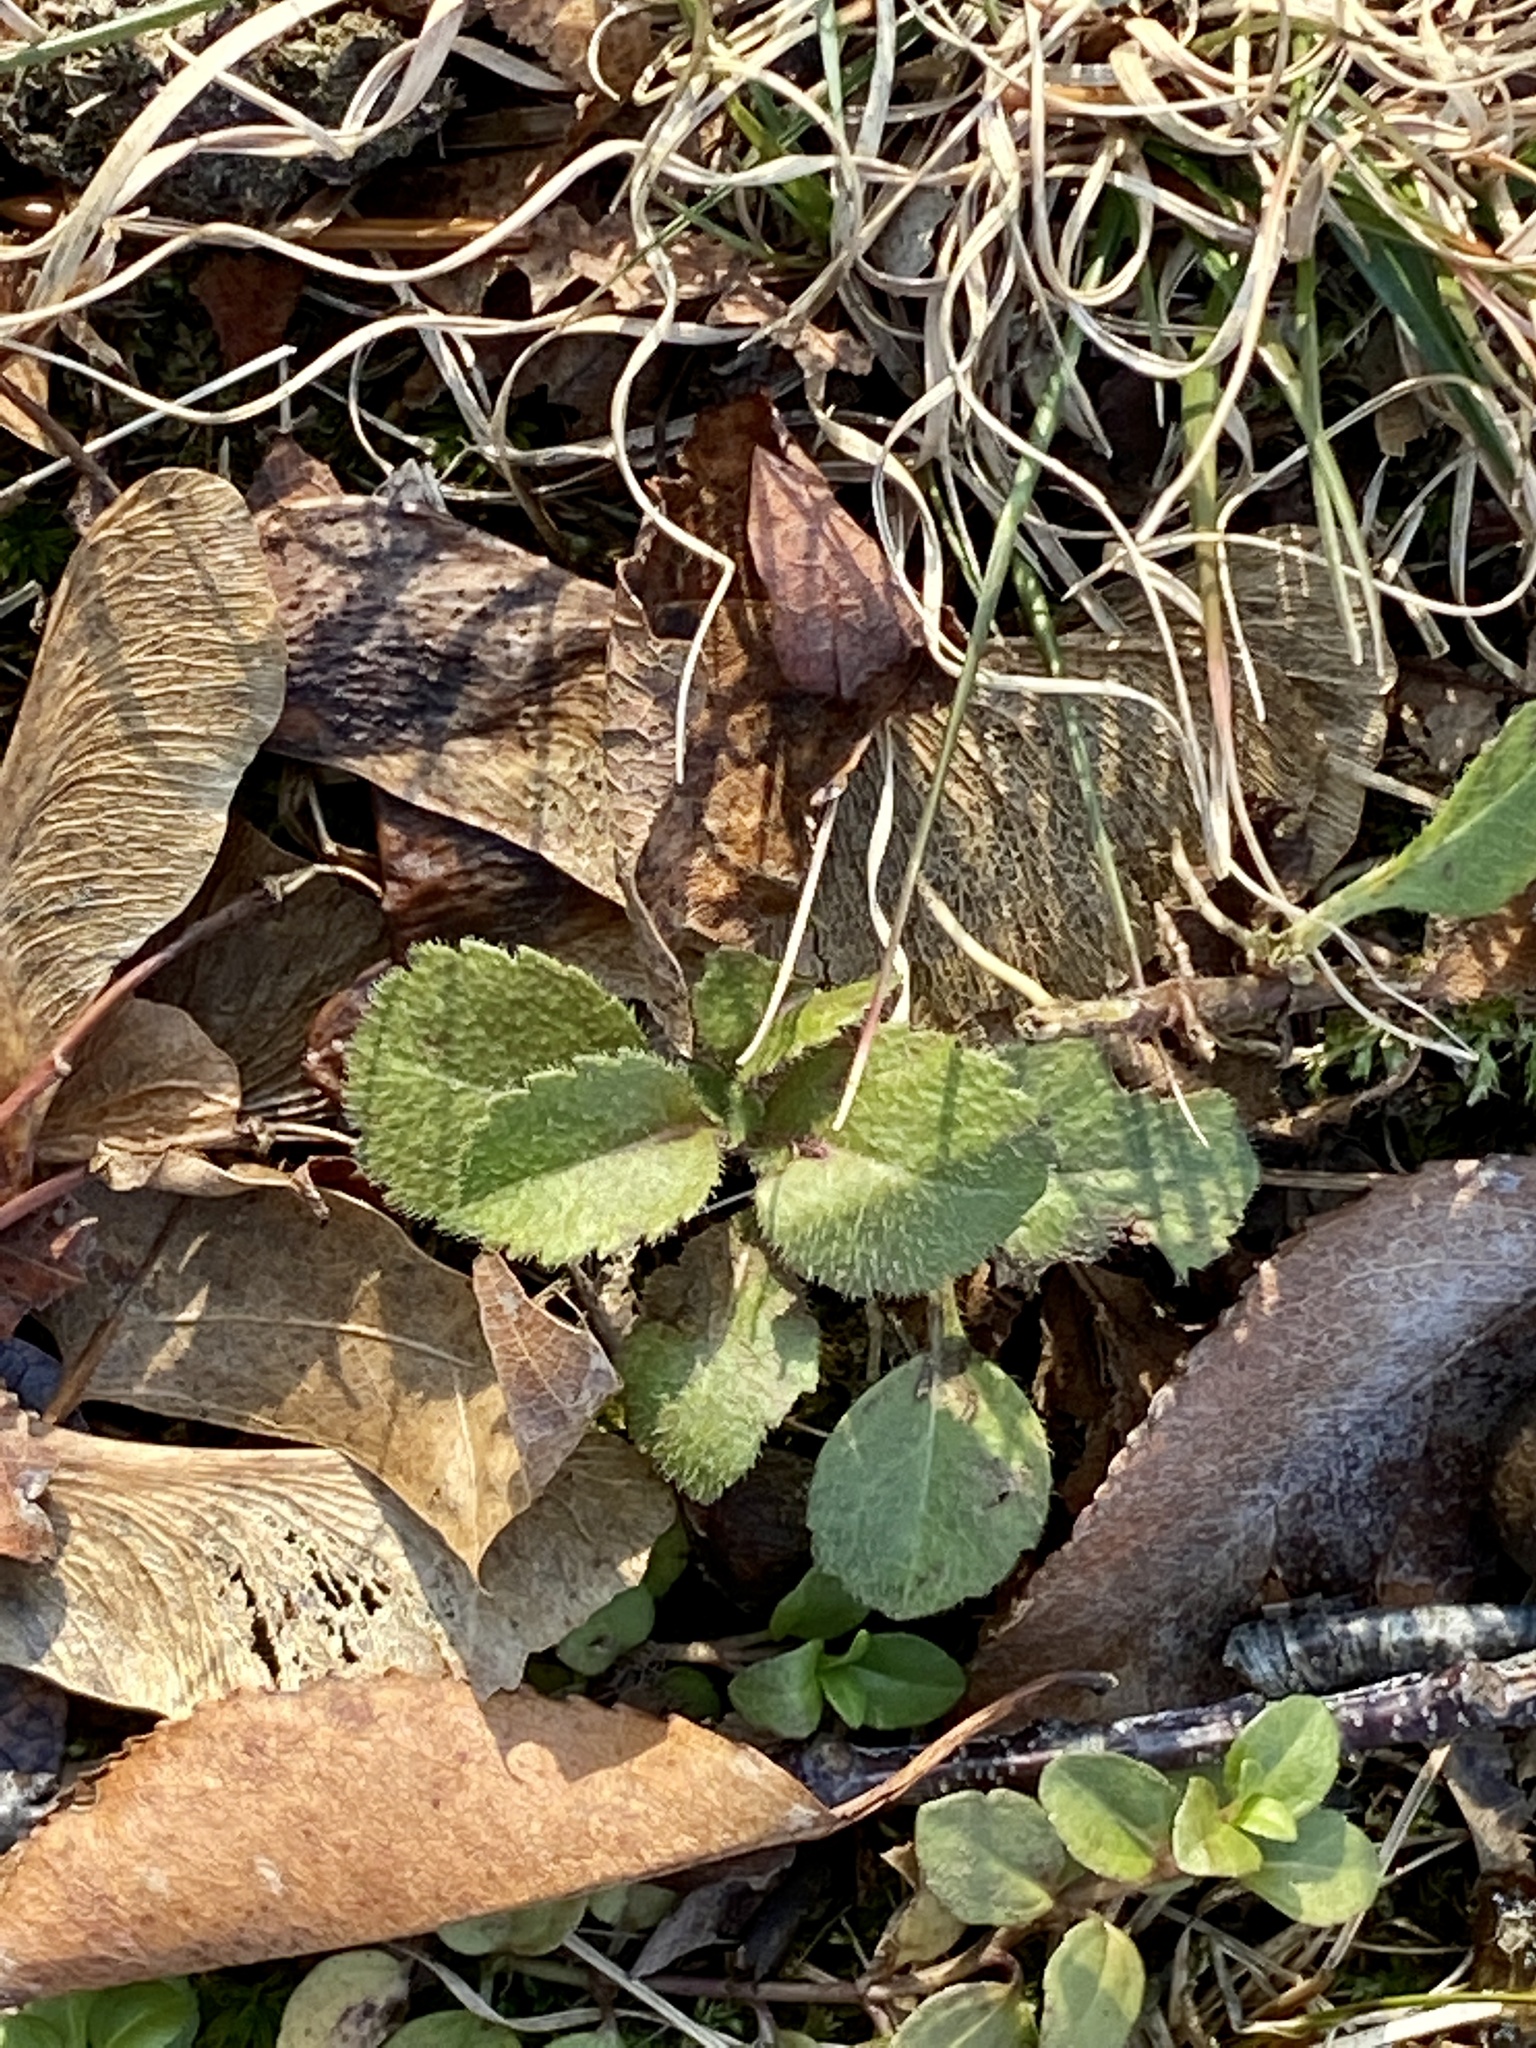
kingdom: Plantae
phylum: Tracheophyta
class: Magnoliopsida
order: Lamiales
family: Plantaginaceae
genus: Veronica
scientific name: Veronica officinalis
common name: Common speedwell
